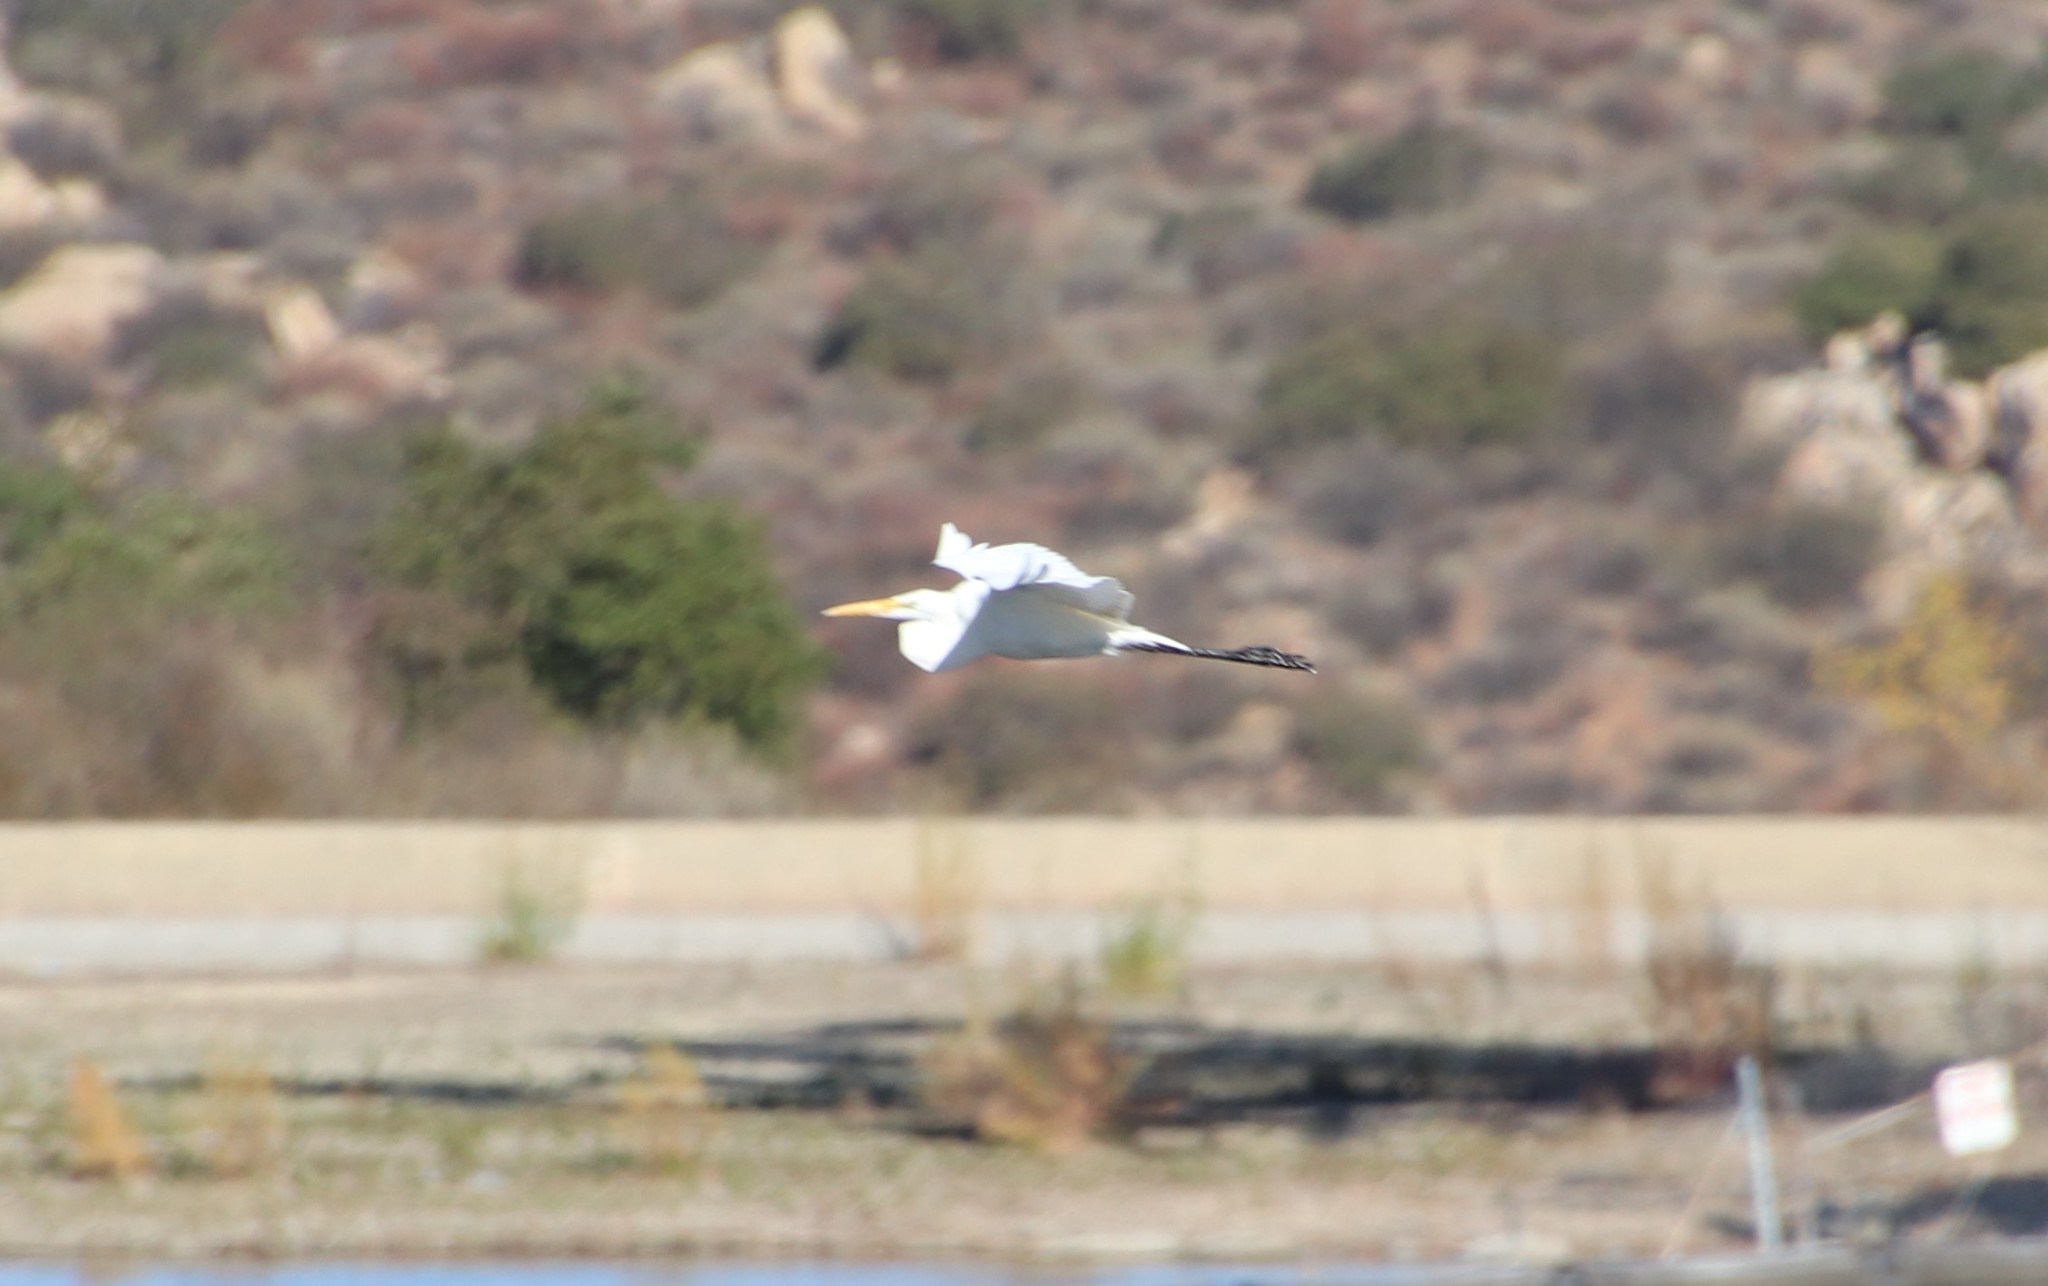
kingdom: Animalia
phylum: Chordata
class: Aves
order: Pelecaniformes
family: Ardeidae
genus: Ardea
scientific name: Ardea alba
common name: Great egret
